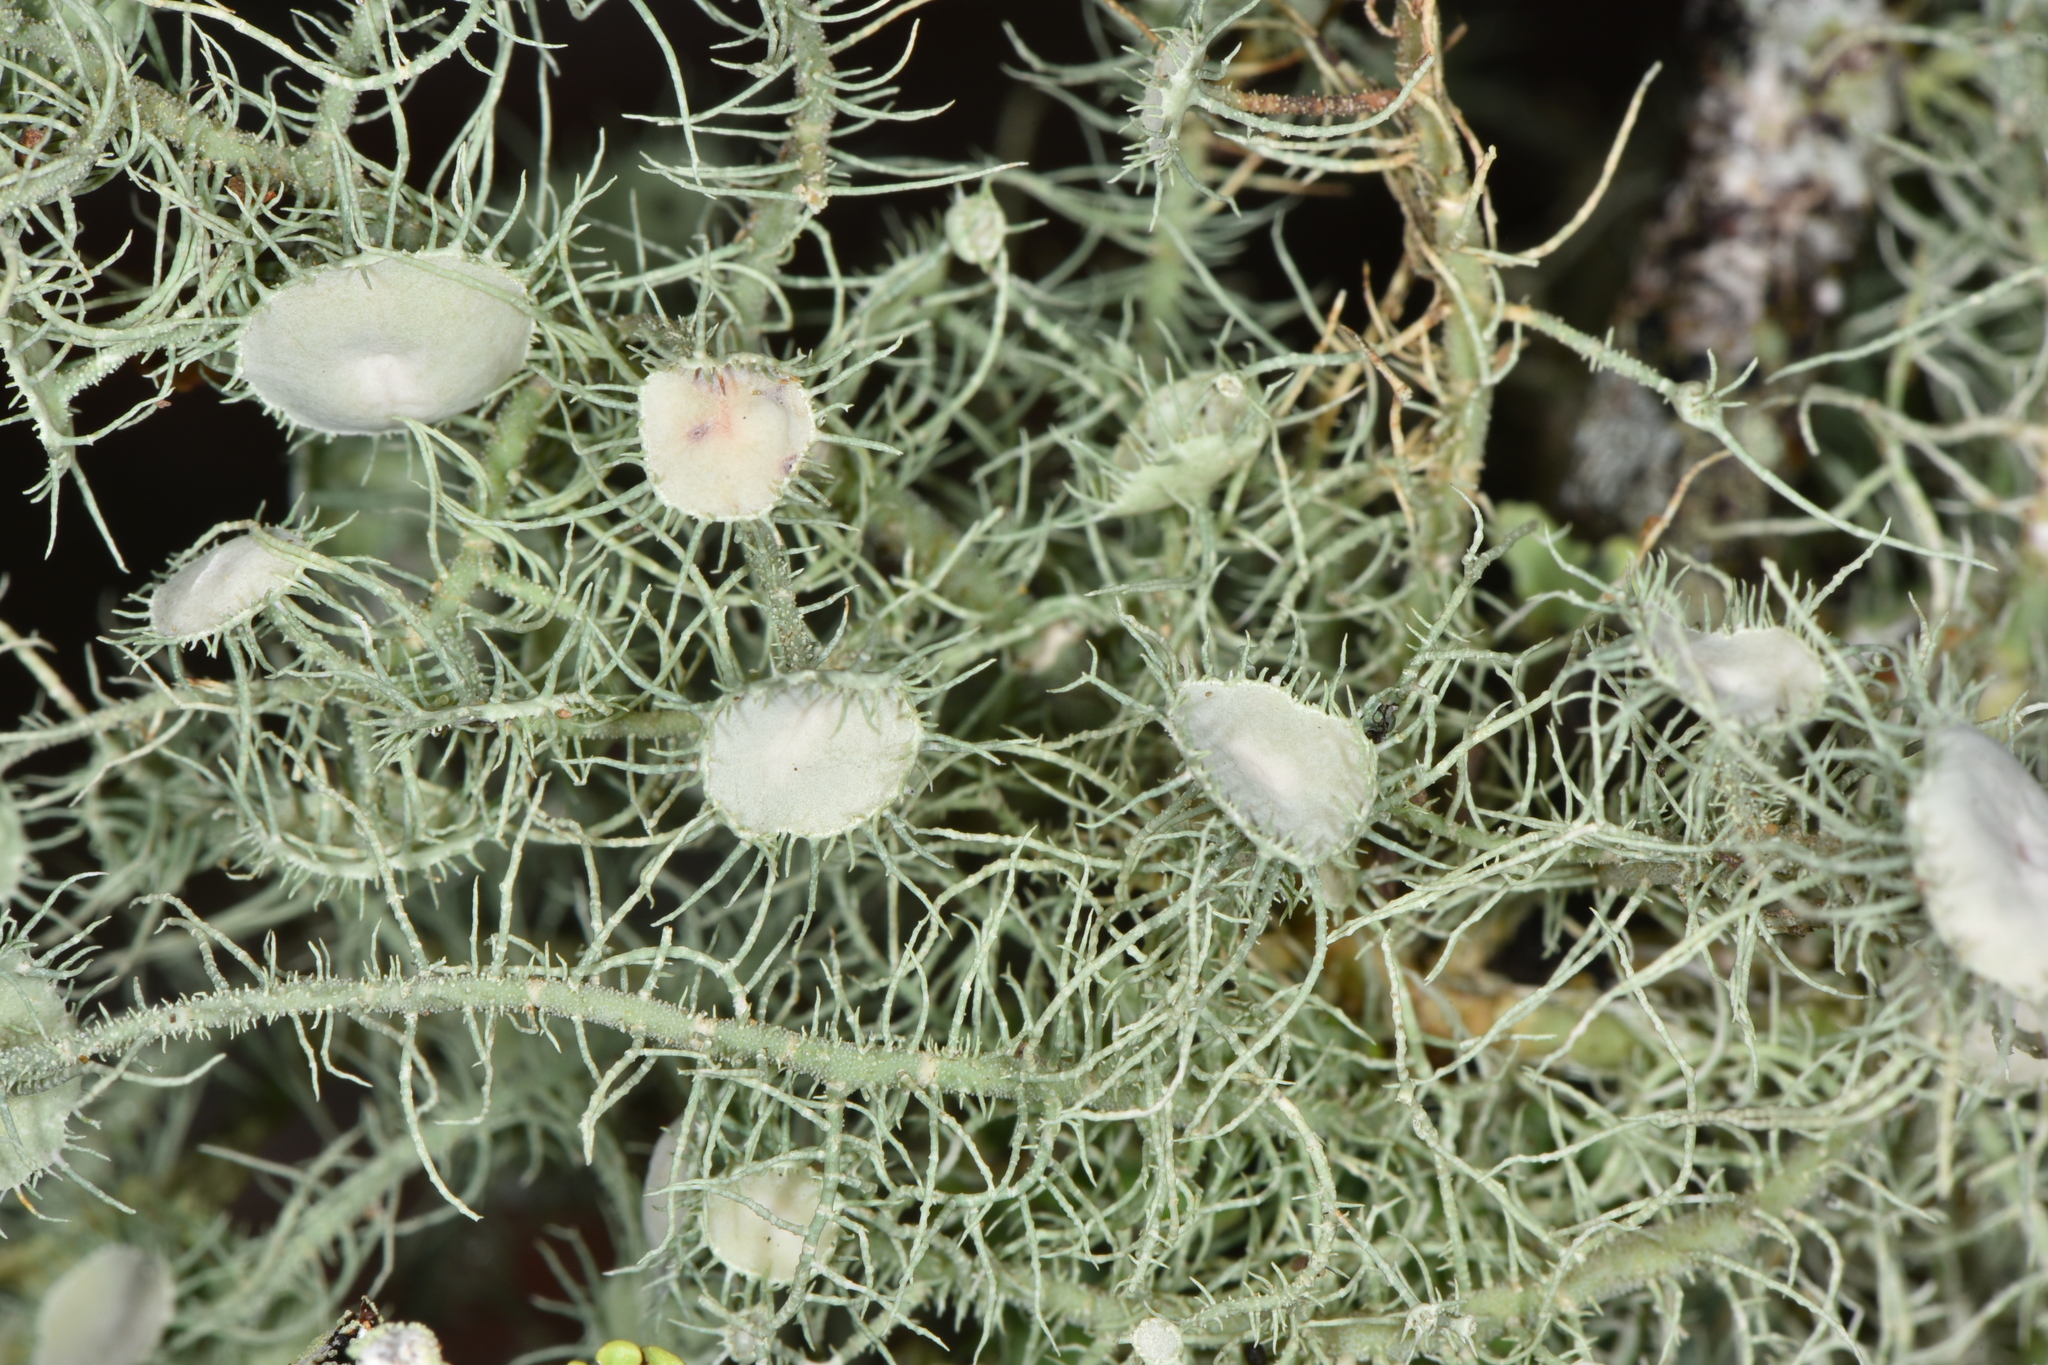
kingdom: Fungi
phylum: Ascomycota
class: Lecanoromycetes
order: Lecanorales
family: Parmeliaceae
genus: Usnea
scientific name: Usnea intermedia
